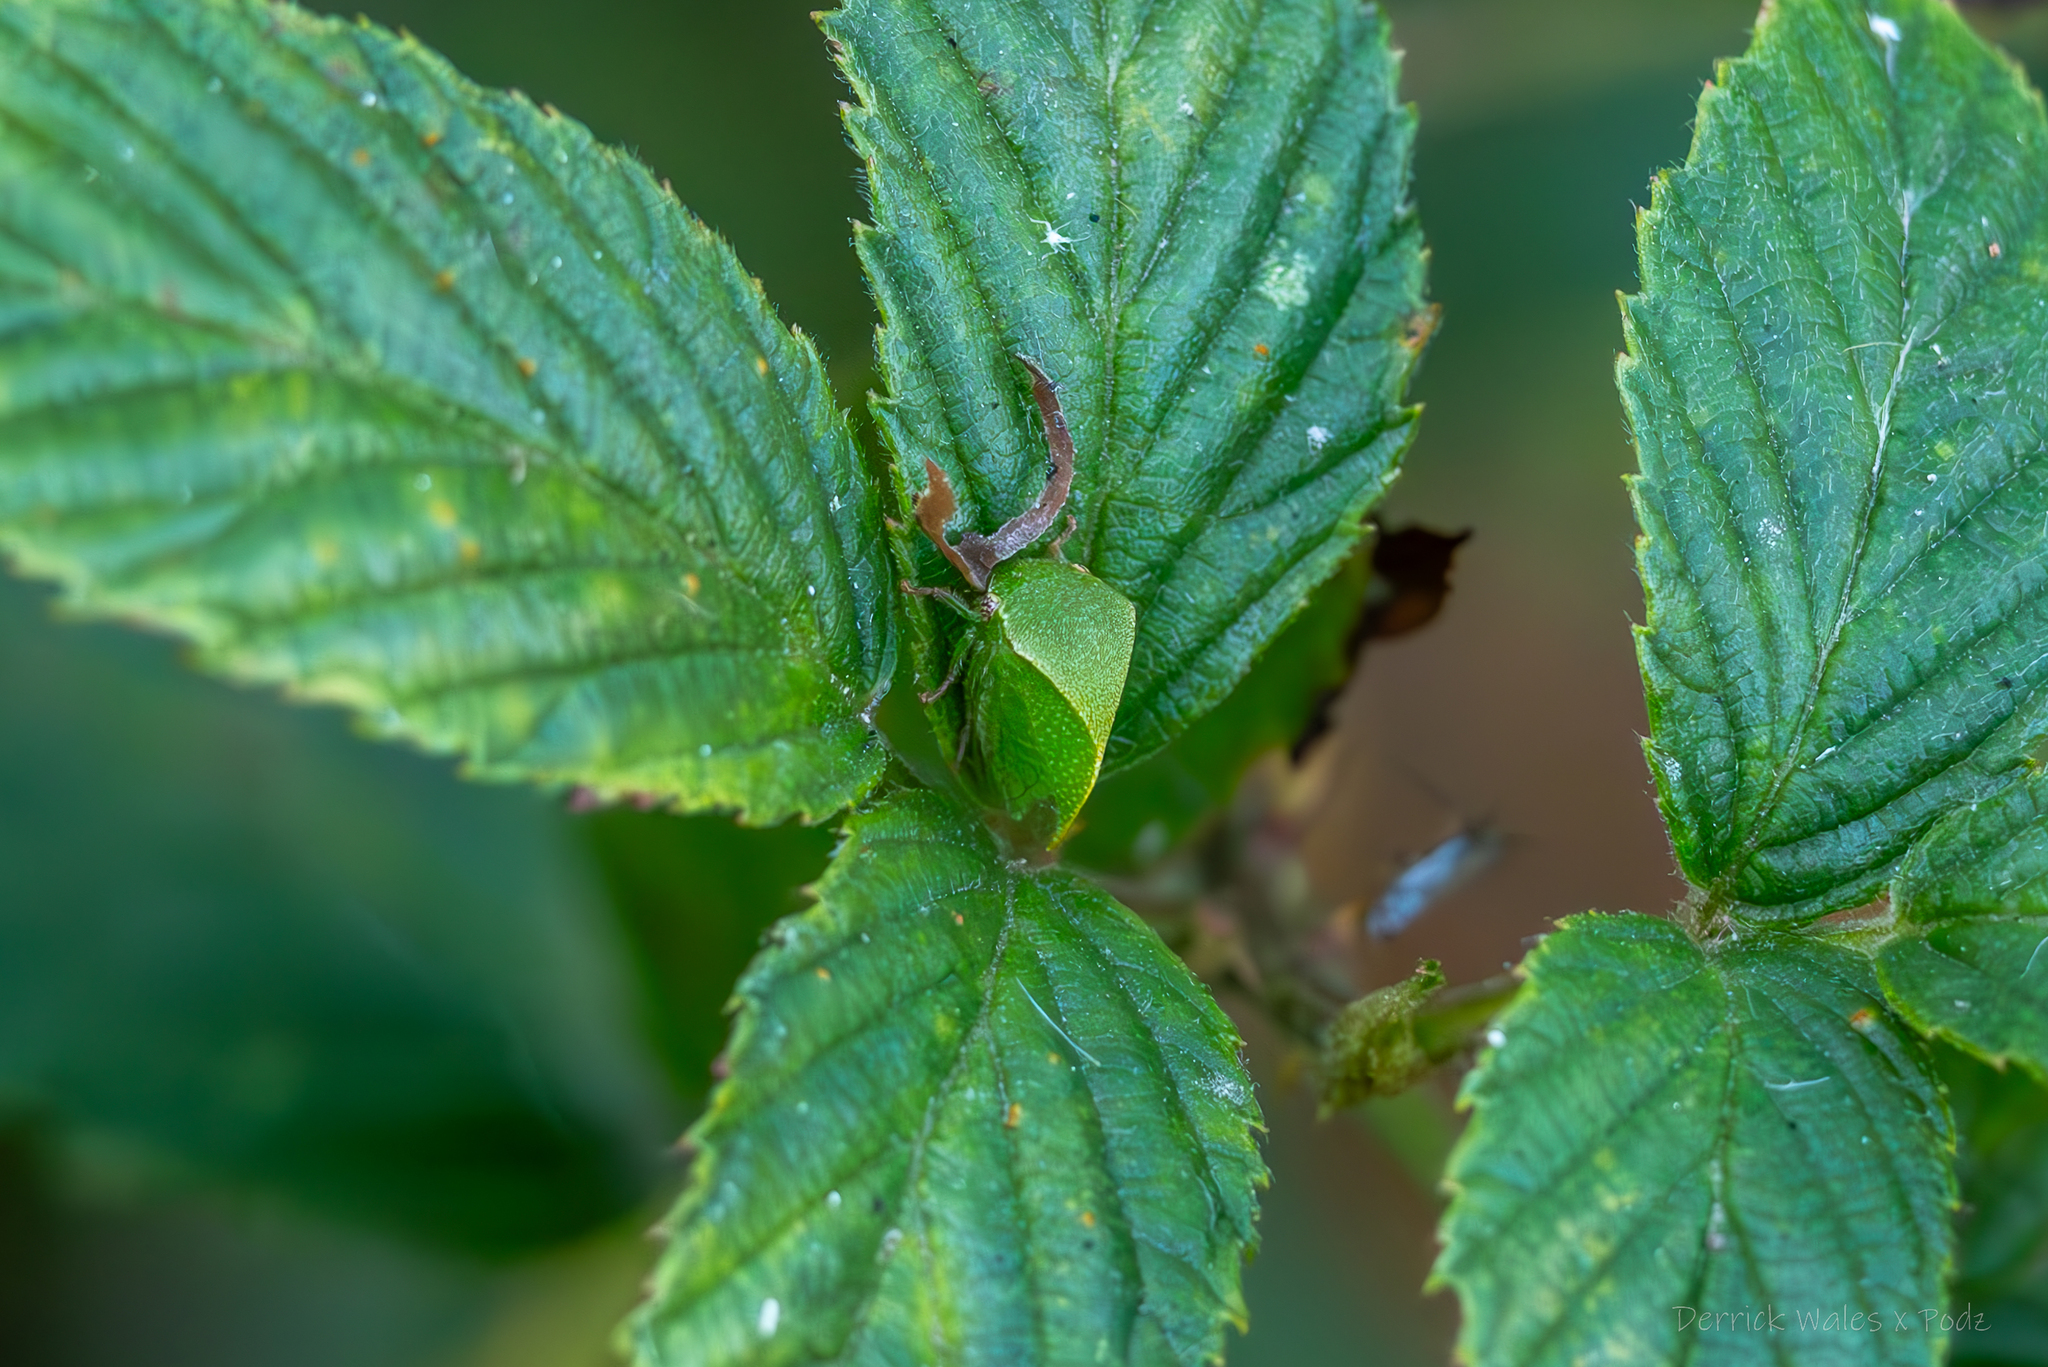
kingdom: Animalia
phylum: Arthropoda
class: Insecta
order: Hemiptera
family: Membracidae
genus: Spissistilus
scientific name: Spissistilus festina
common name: Membracid bug
